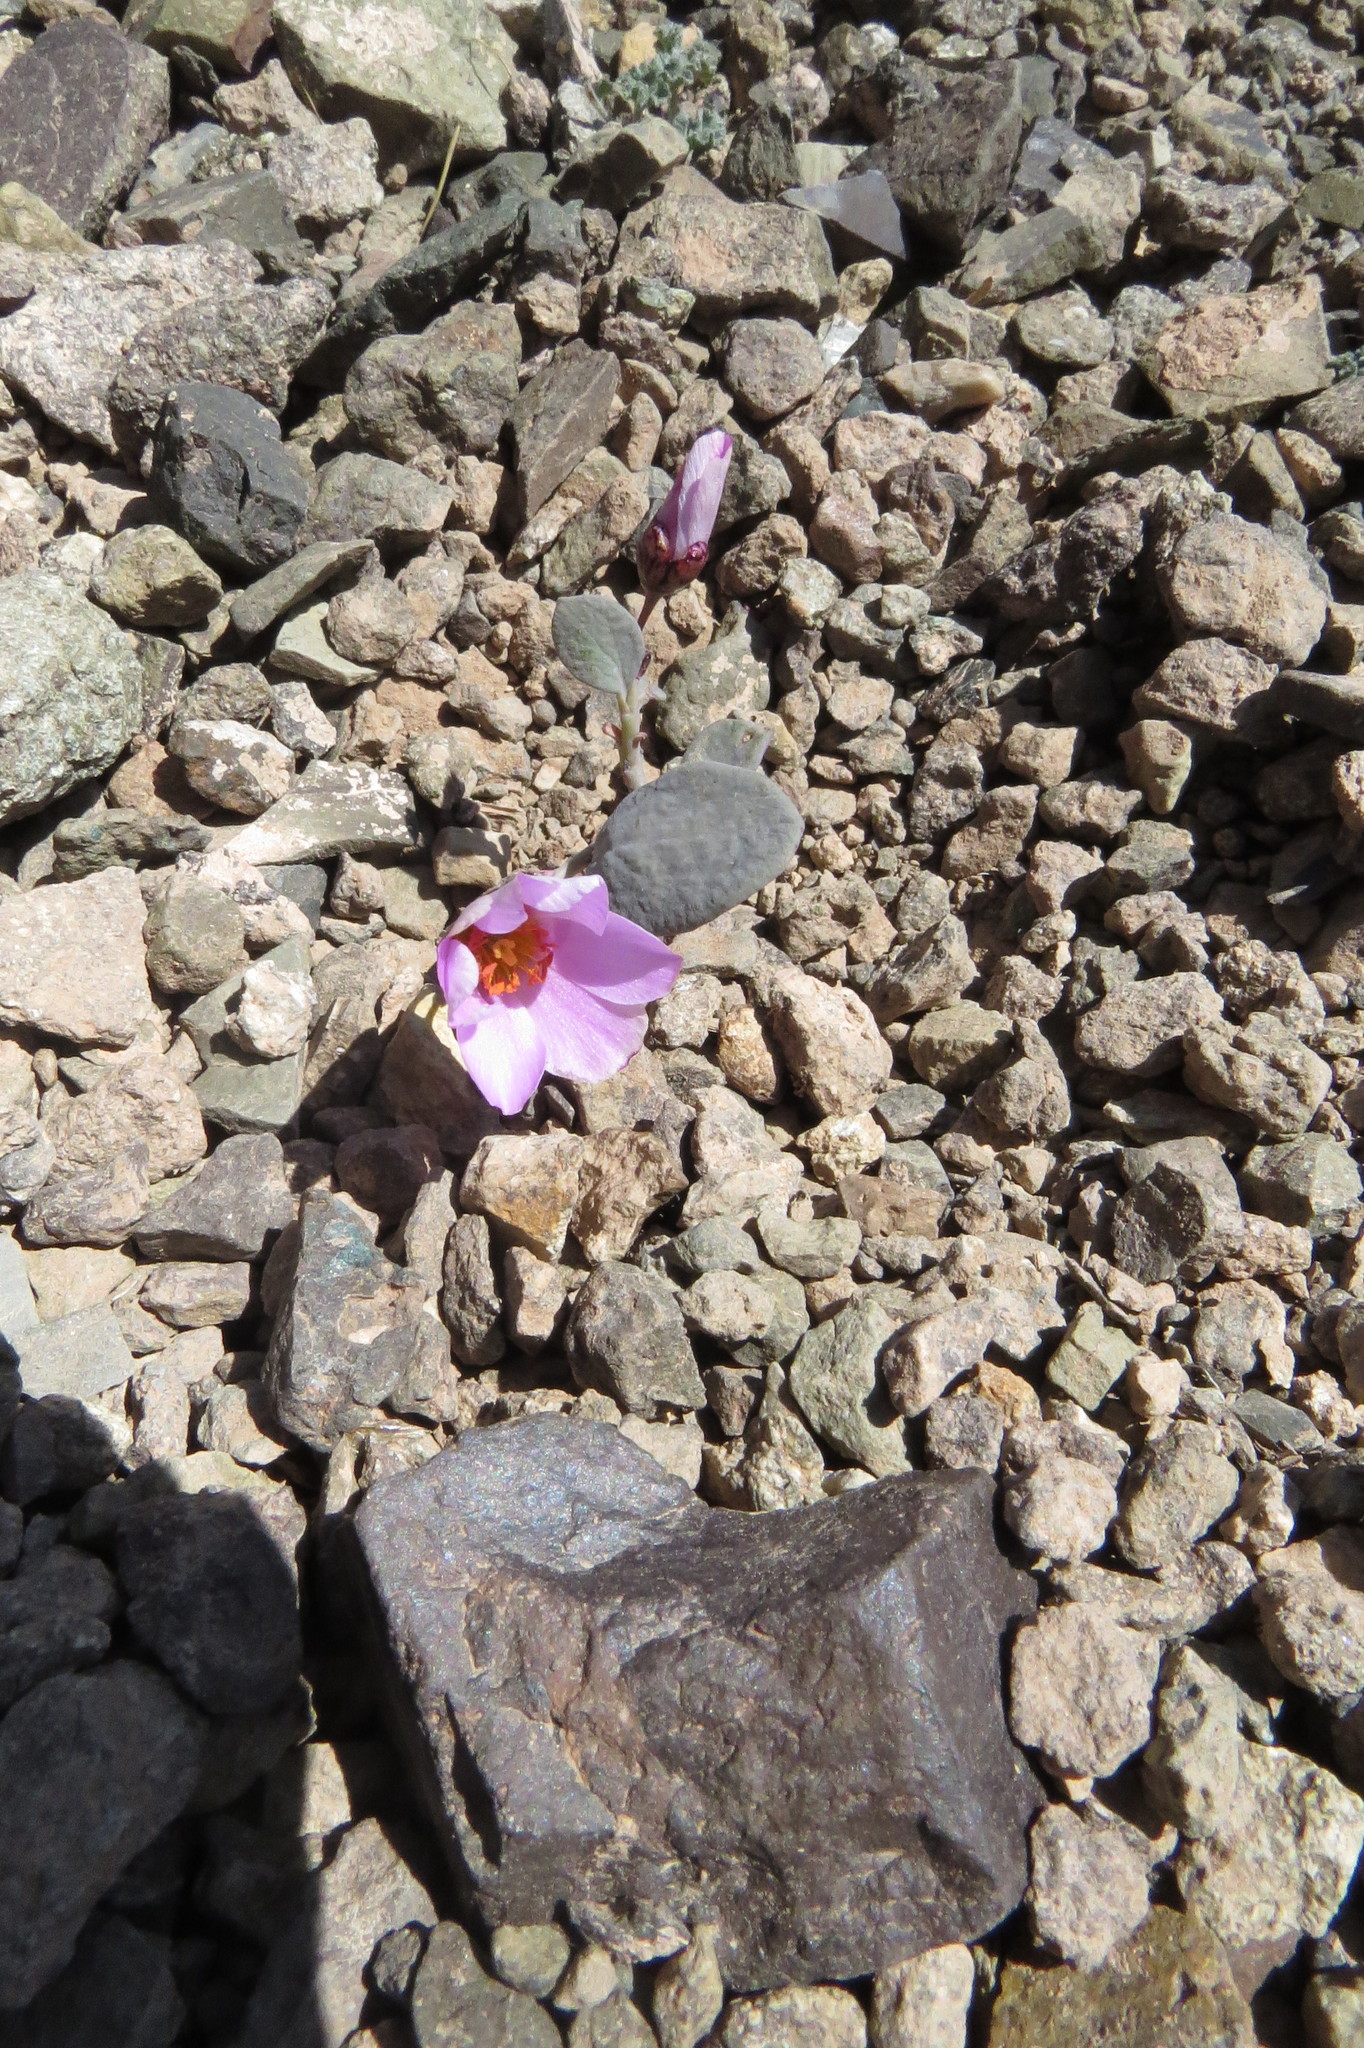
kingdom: Plantae
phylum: Tracheophyta
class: Magnoliopsida
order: Caryophyllales
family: Montiaceae
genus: Cistanthe
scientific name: Cistanthe picta
